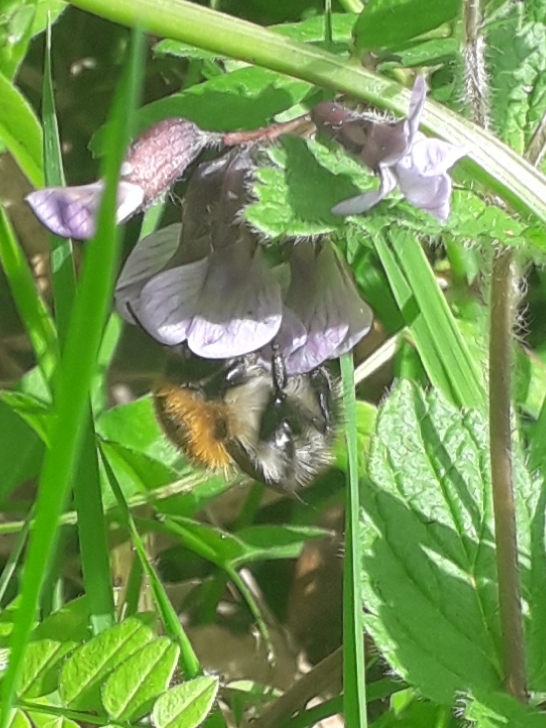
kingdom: Animalia
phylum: Arthropoda
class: Insecta
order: Hymenoptera
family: Apidae
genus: Bombus
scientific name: Bombus pascuorum
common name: Common carder bee
